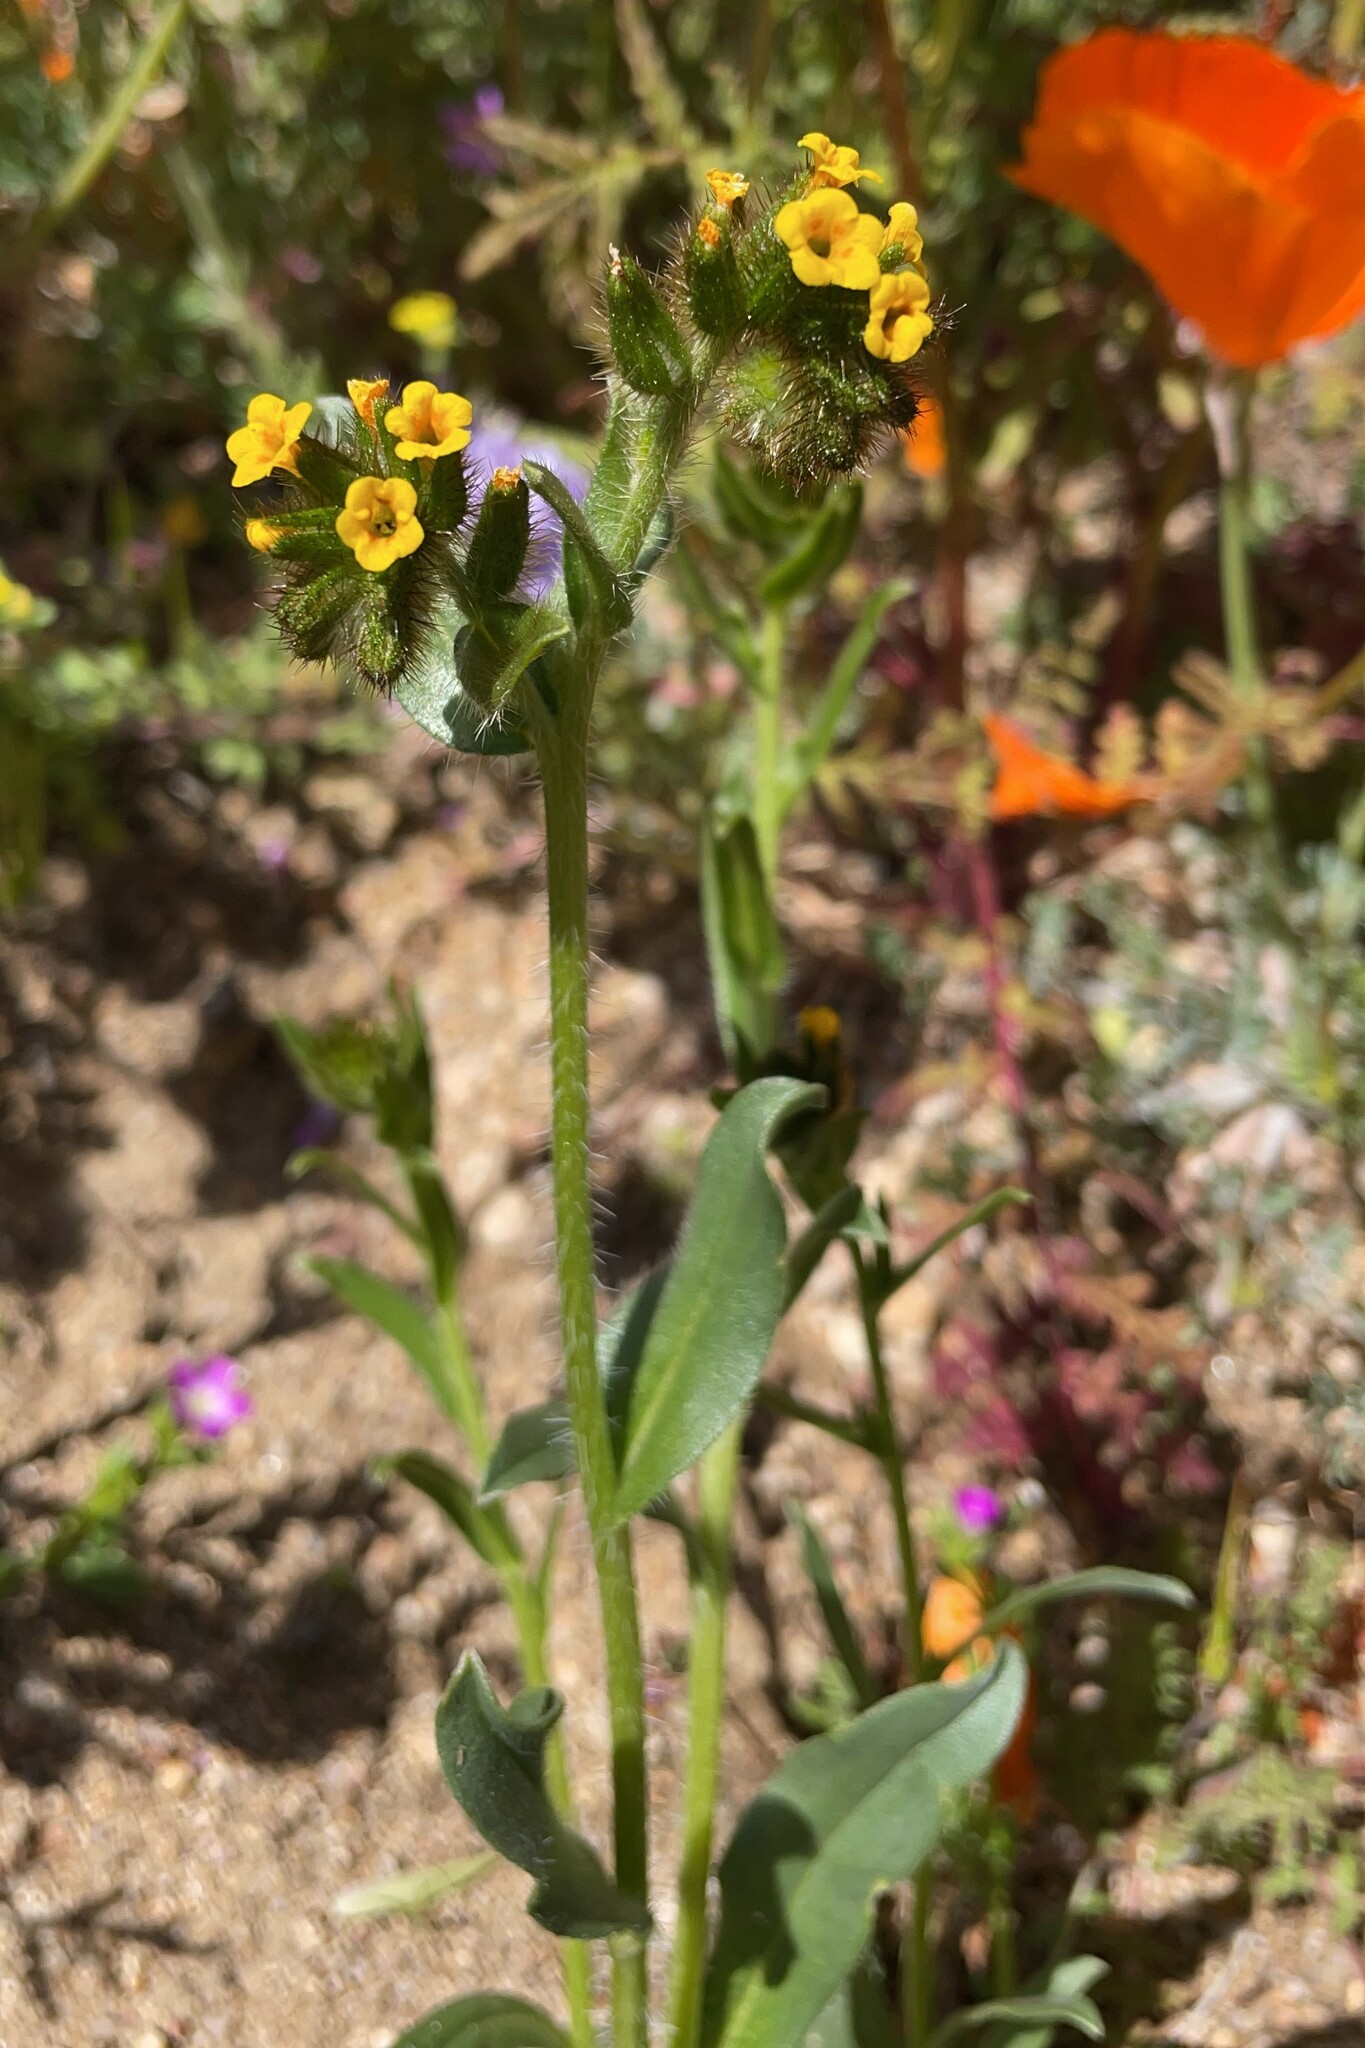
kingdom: Plantae
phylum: Tracheophyta
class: Magnoliopsida
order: Boraginales
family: Boraginaceae
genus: Amsinckia
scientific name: Amsinckia tessellata
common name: Tessellate fiddleneck
